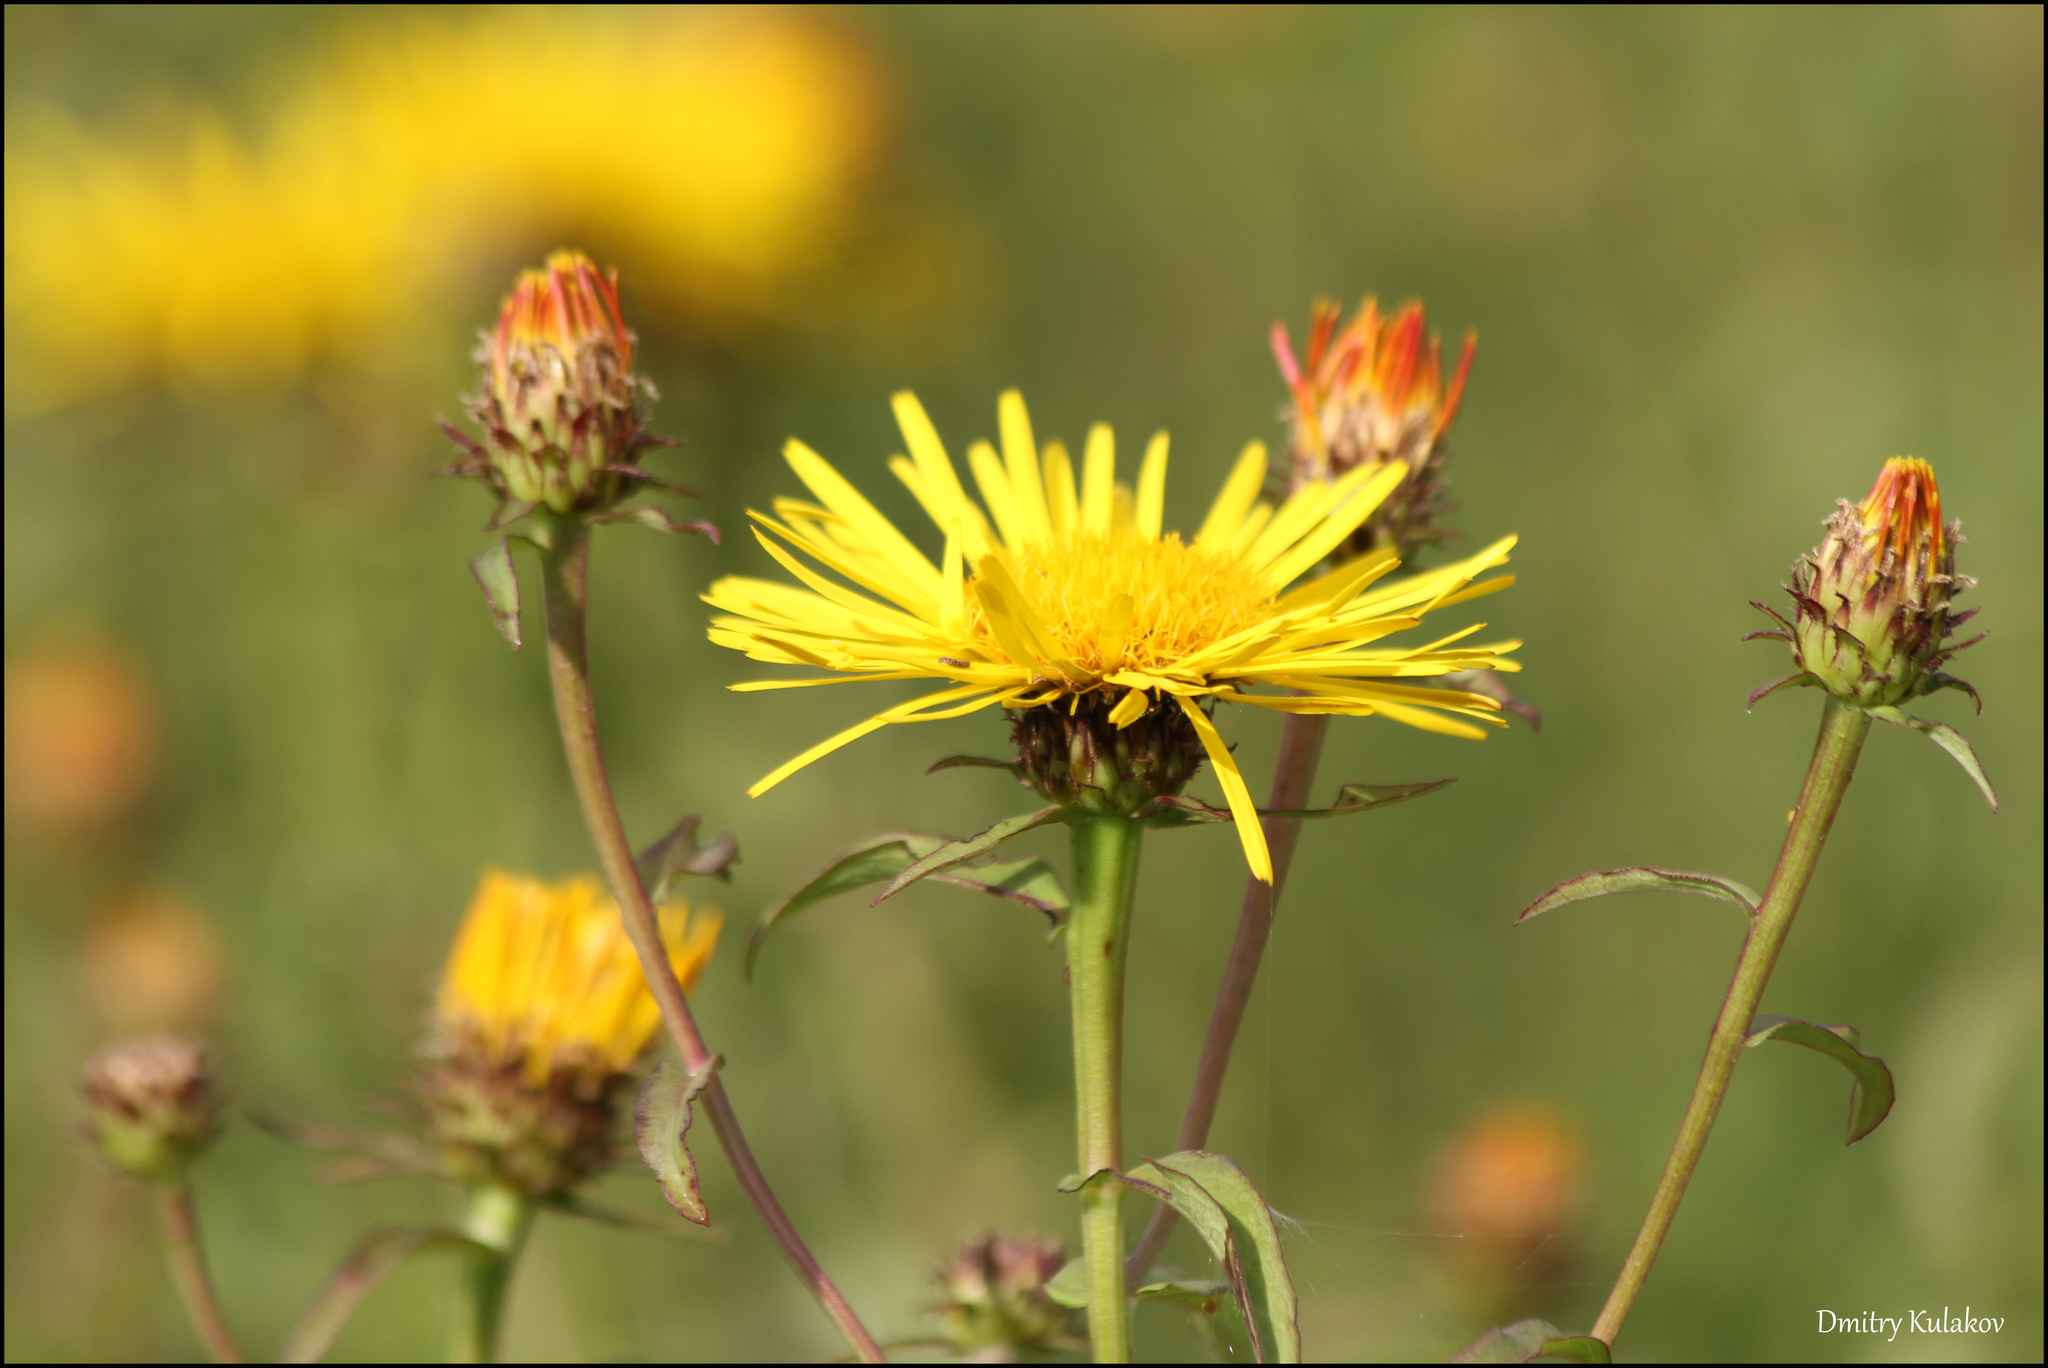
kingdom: Plantae
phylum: Tracheophyta
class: Magnoliopsida
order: Asterales
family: Asteraceae
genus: Pentanema
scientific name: Pentanema salicinum
